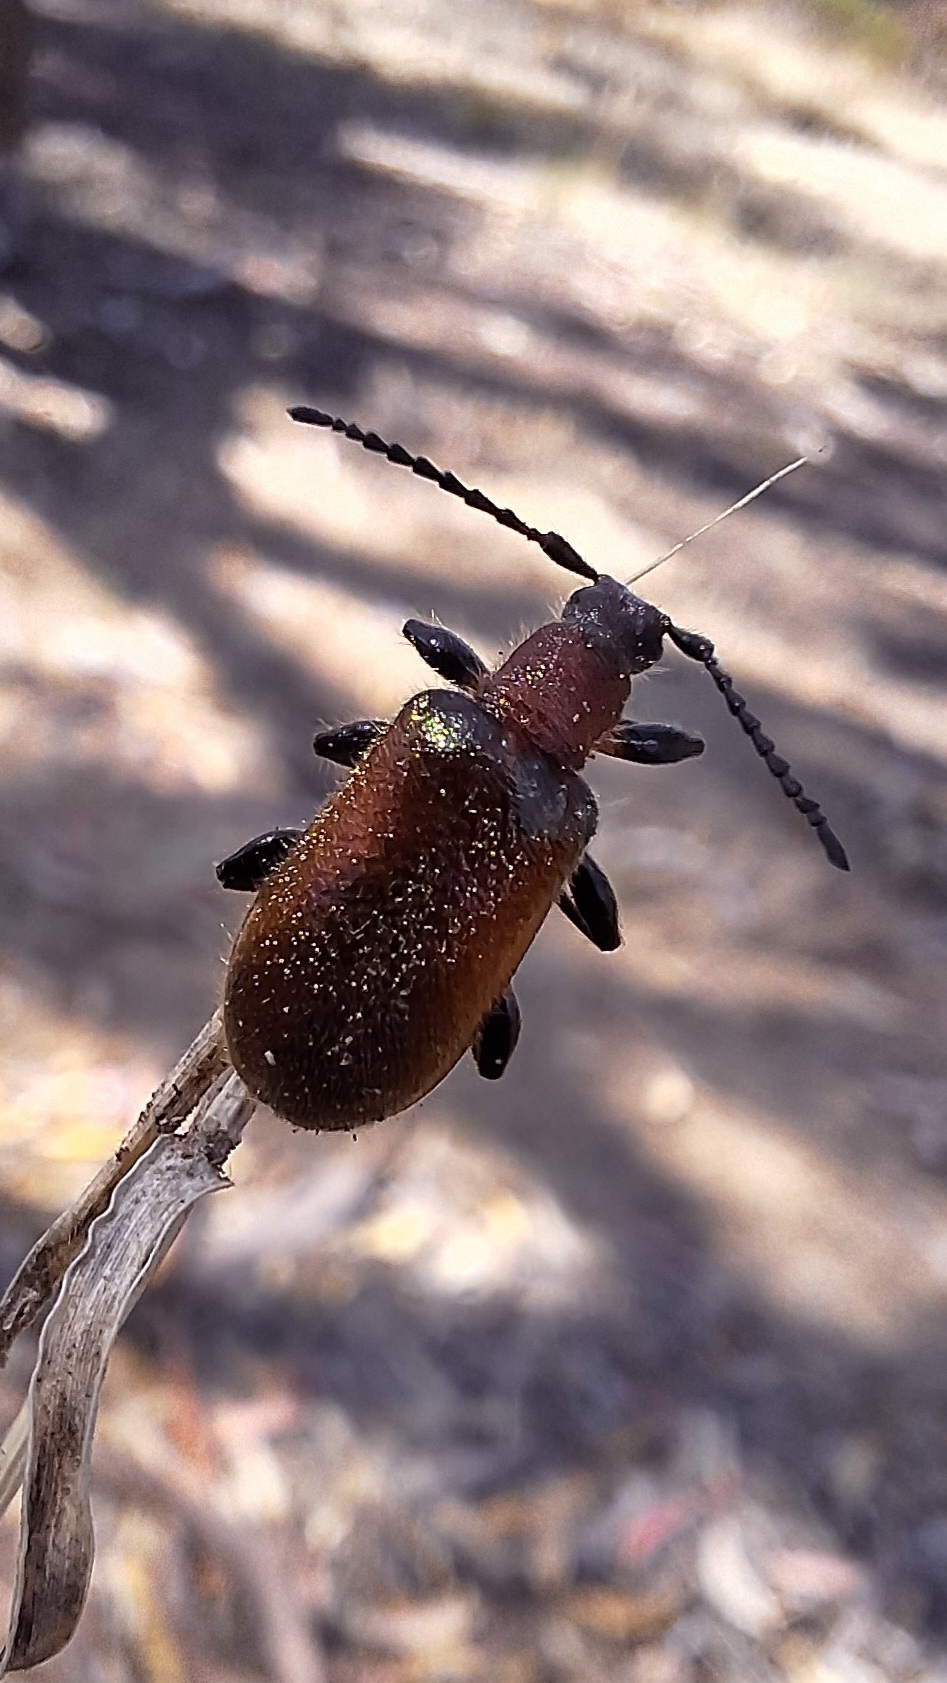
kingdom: Animalia
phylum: Arthropoda
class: Insecta
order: Coleoptera
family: Tenebrionidae
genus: Ecnolagria
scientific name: Ecnolagria
